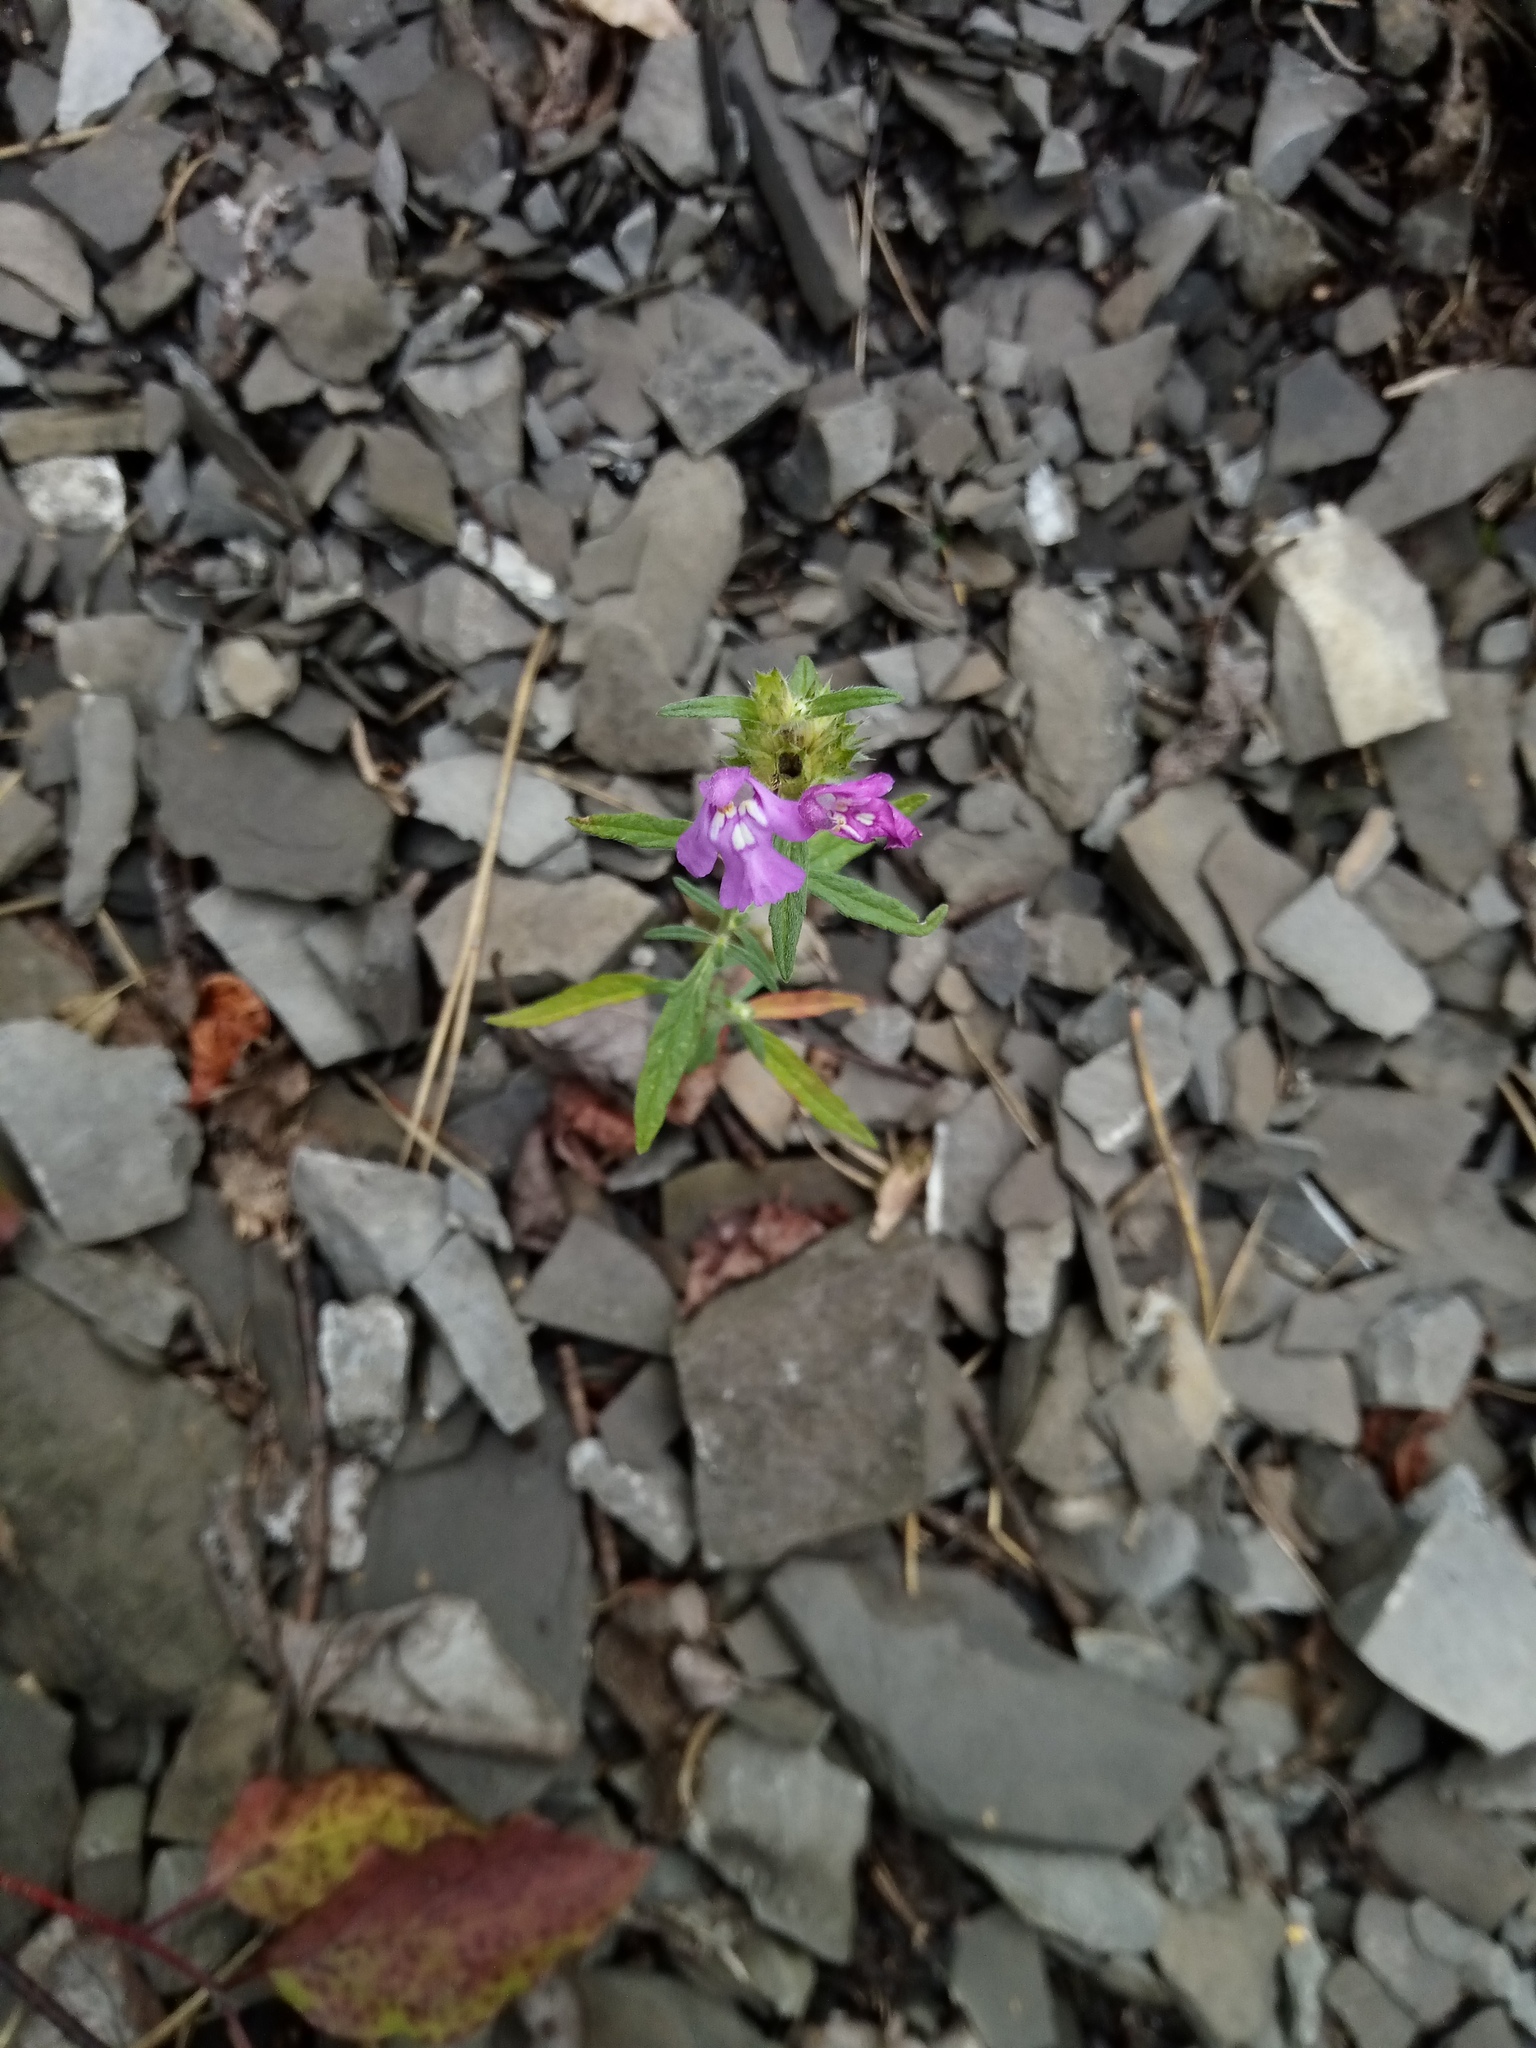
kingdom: Plantae
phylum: Tracheophyta
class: Magnoliopsida
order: Lamiales
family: Lamiaceae
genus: Galeopsis
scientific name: Galeopsis angustifolia
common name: Red hemp-nettle
